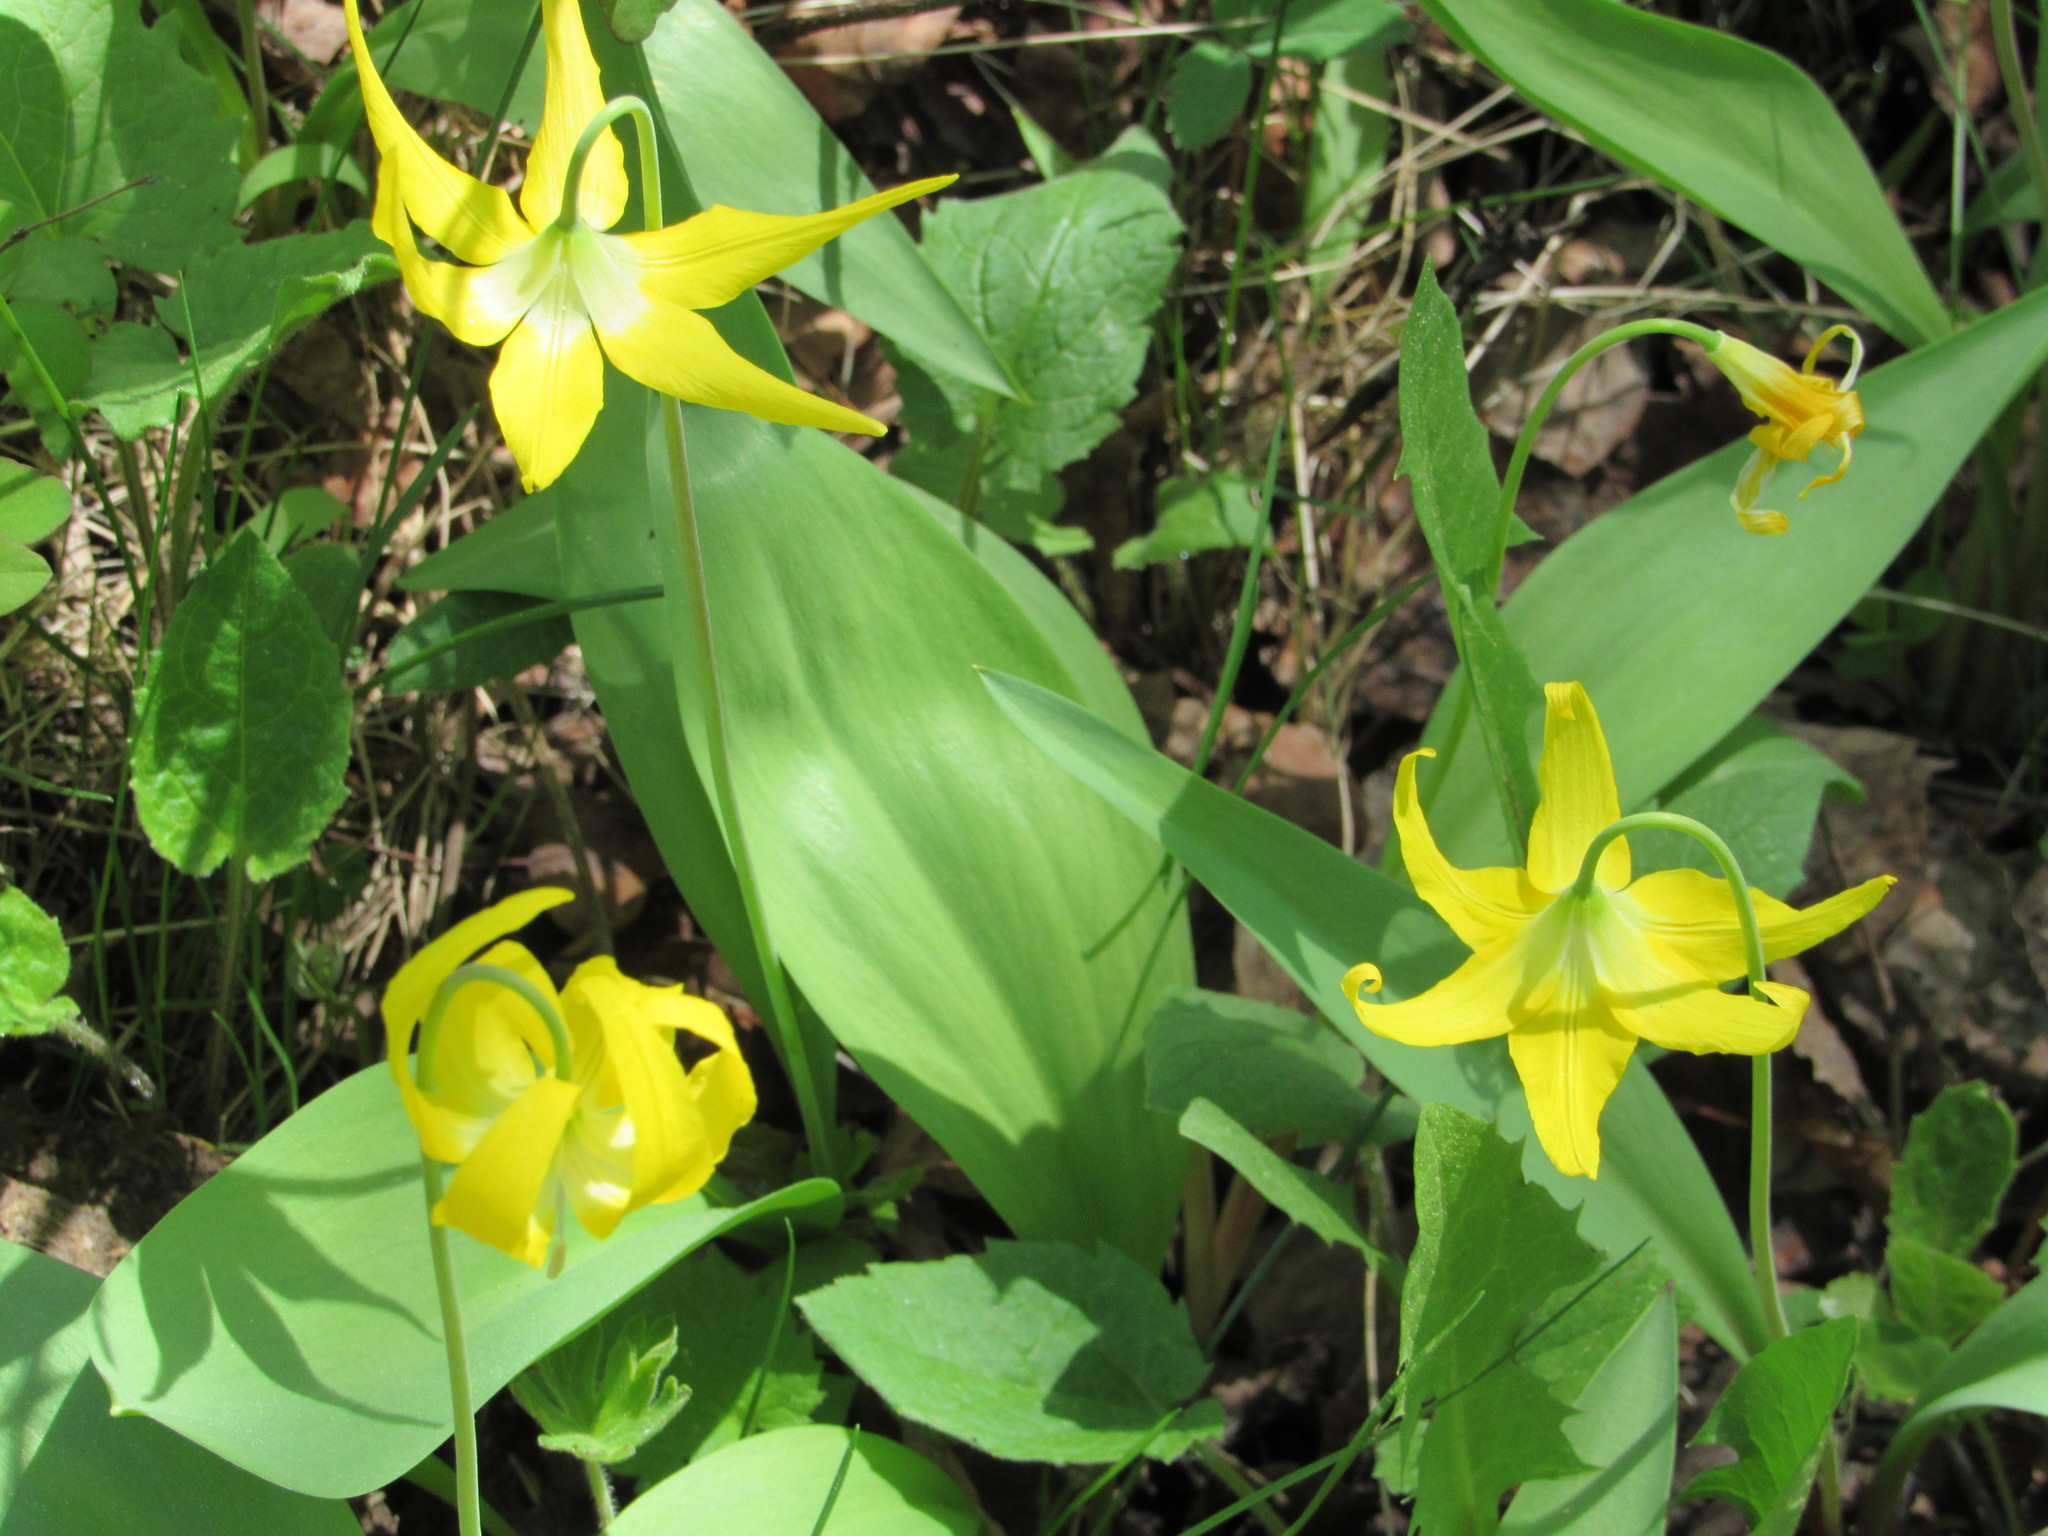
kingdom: Plantae
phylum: Tracheophyta
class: Liliopsida
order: Liliales
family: Liliaceae
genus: Erythronium
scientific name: Erythronium grandiflorum
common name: Avalanche-lily
